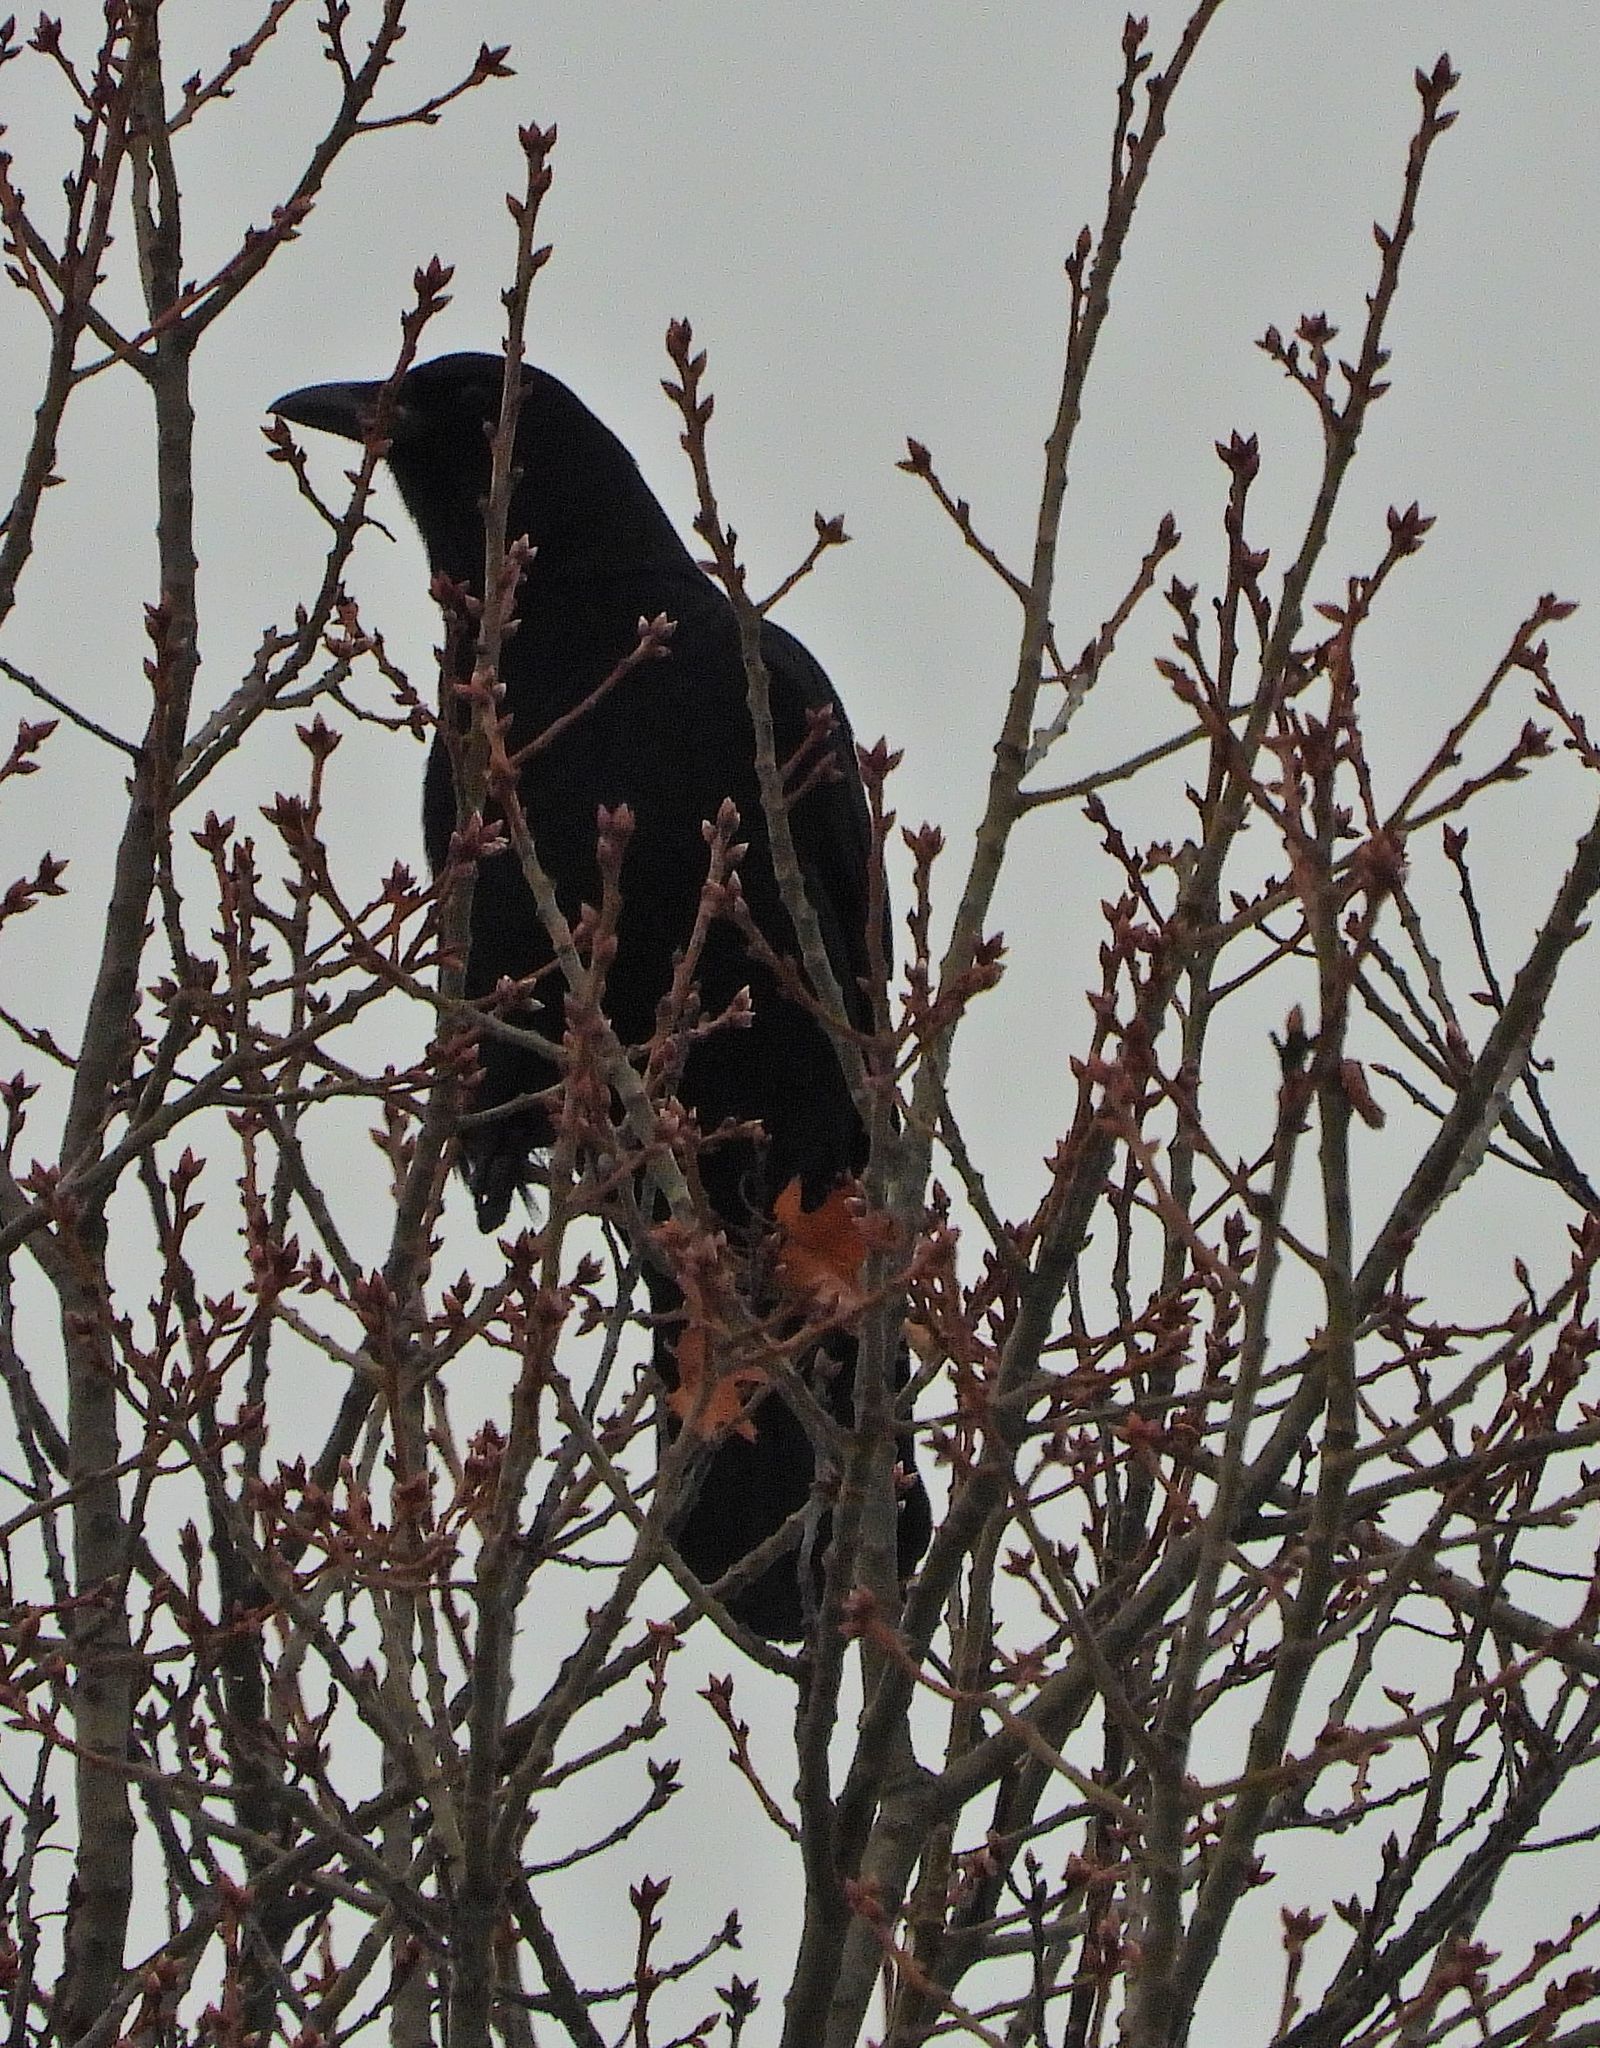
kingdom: Animalia
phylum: Chordata
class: Aves
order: Passeriformes
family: Corvidae
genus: Corvus
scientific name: Corvus brachyrhynchos
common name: American crow
